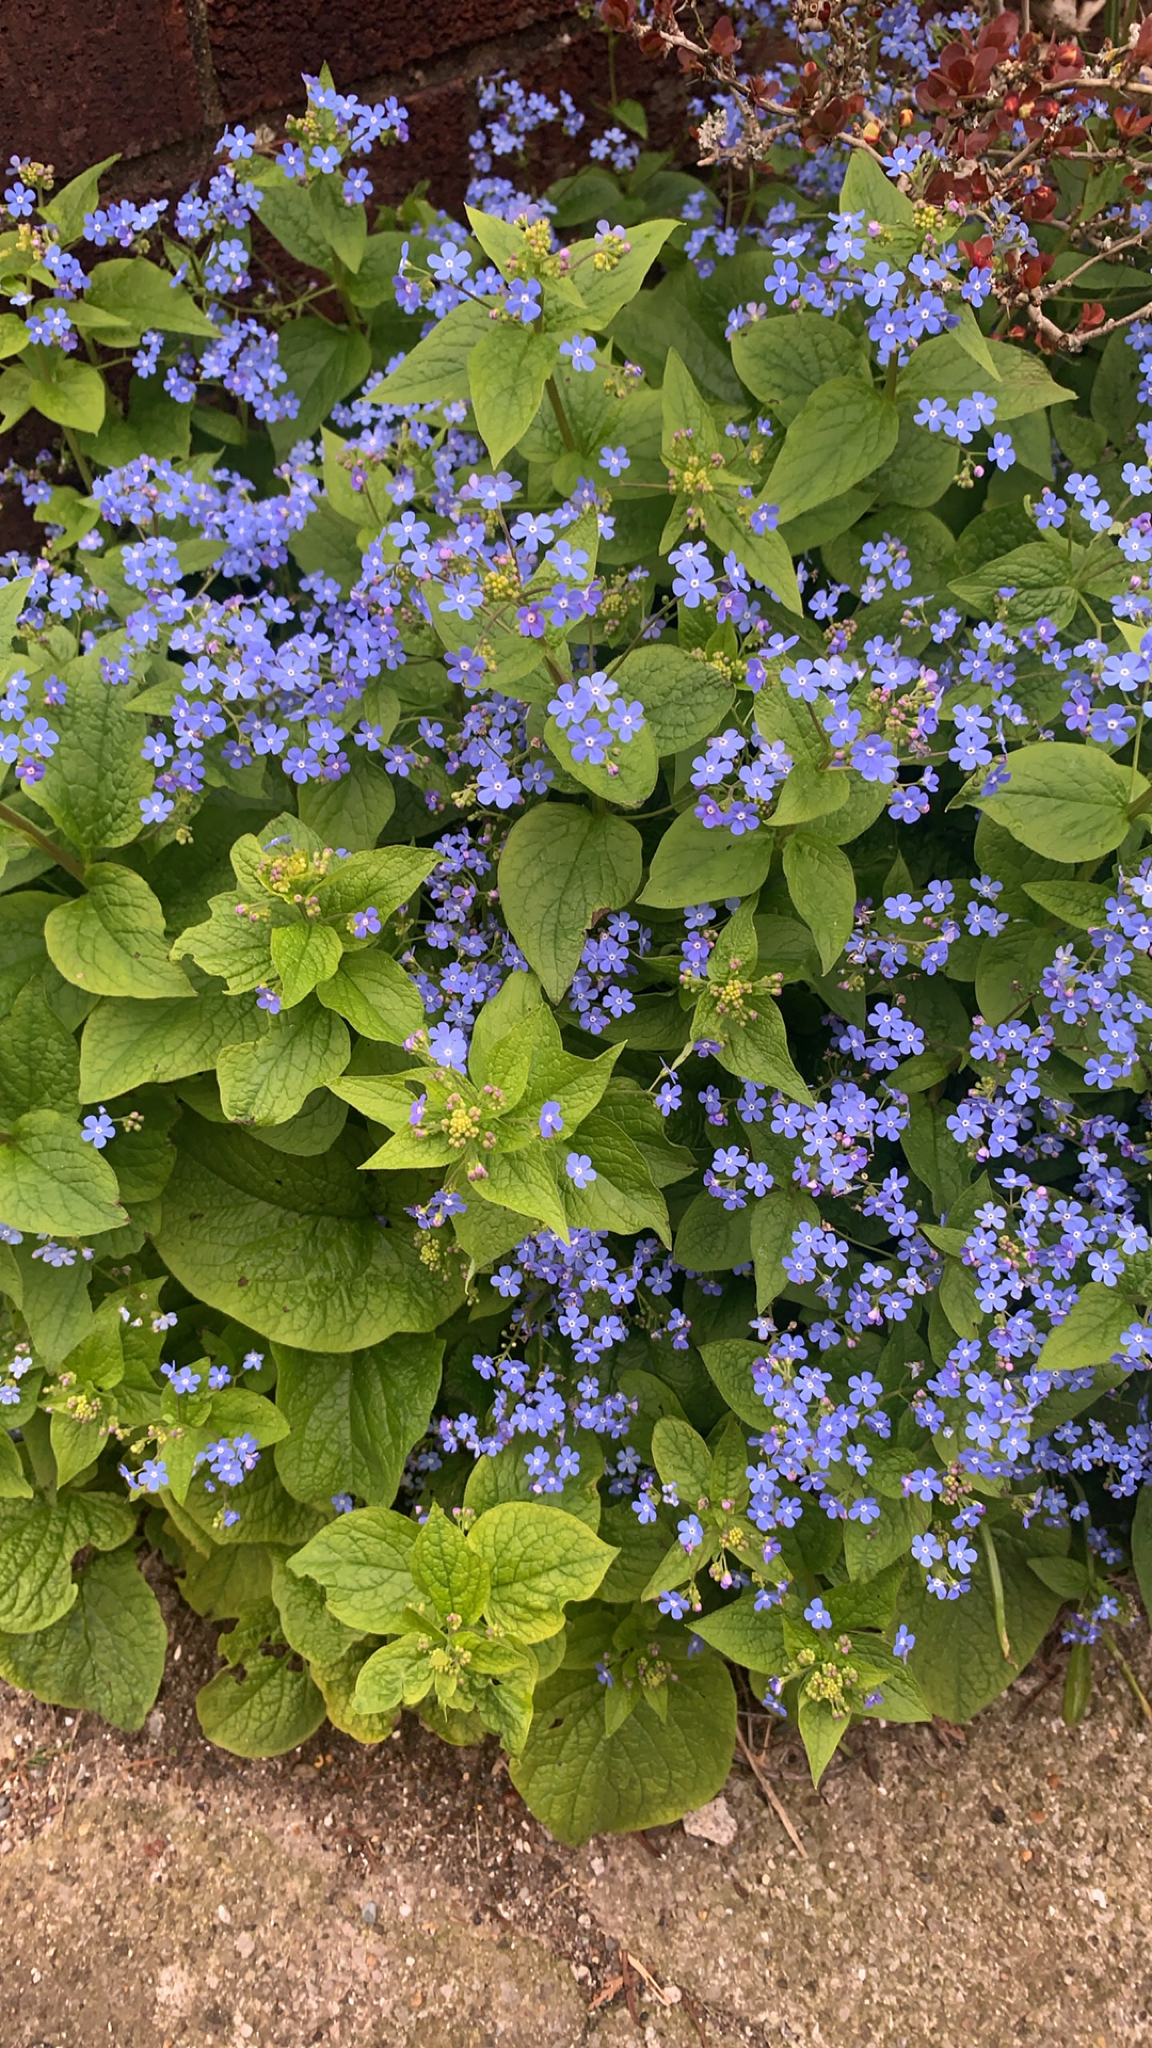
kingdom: Plantae
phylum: Tracheophyta
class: Magnoliopsida
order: Boraginales
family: Boraginaceae
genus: Brunnera
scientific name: Brunnera macrophylla
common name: Great forget-me-not
